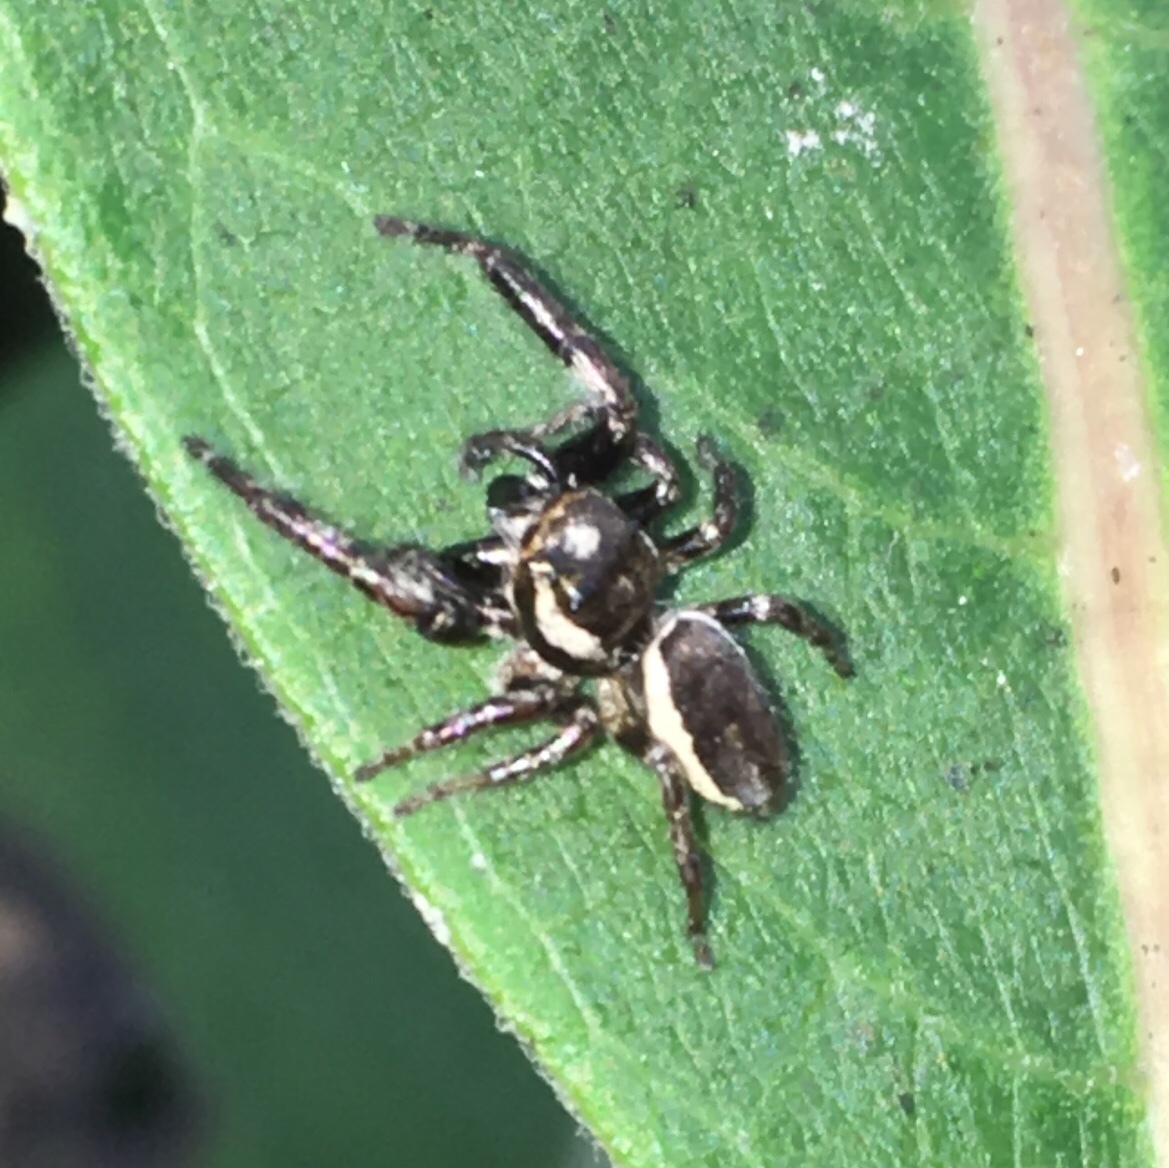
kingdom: Animalia
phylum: Arthropoda
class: Arachnida
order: Araneae
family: Salticidae
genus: Eris
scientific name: Eris militaris
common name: Bronze jumper
